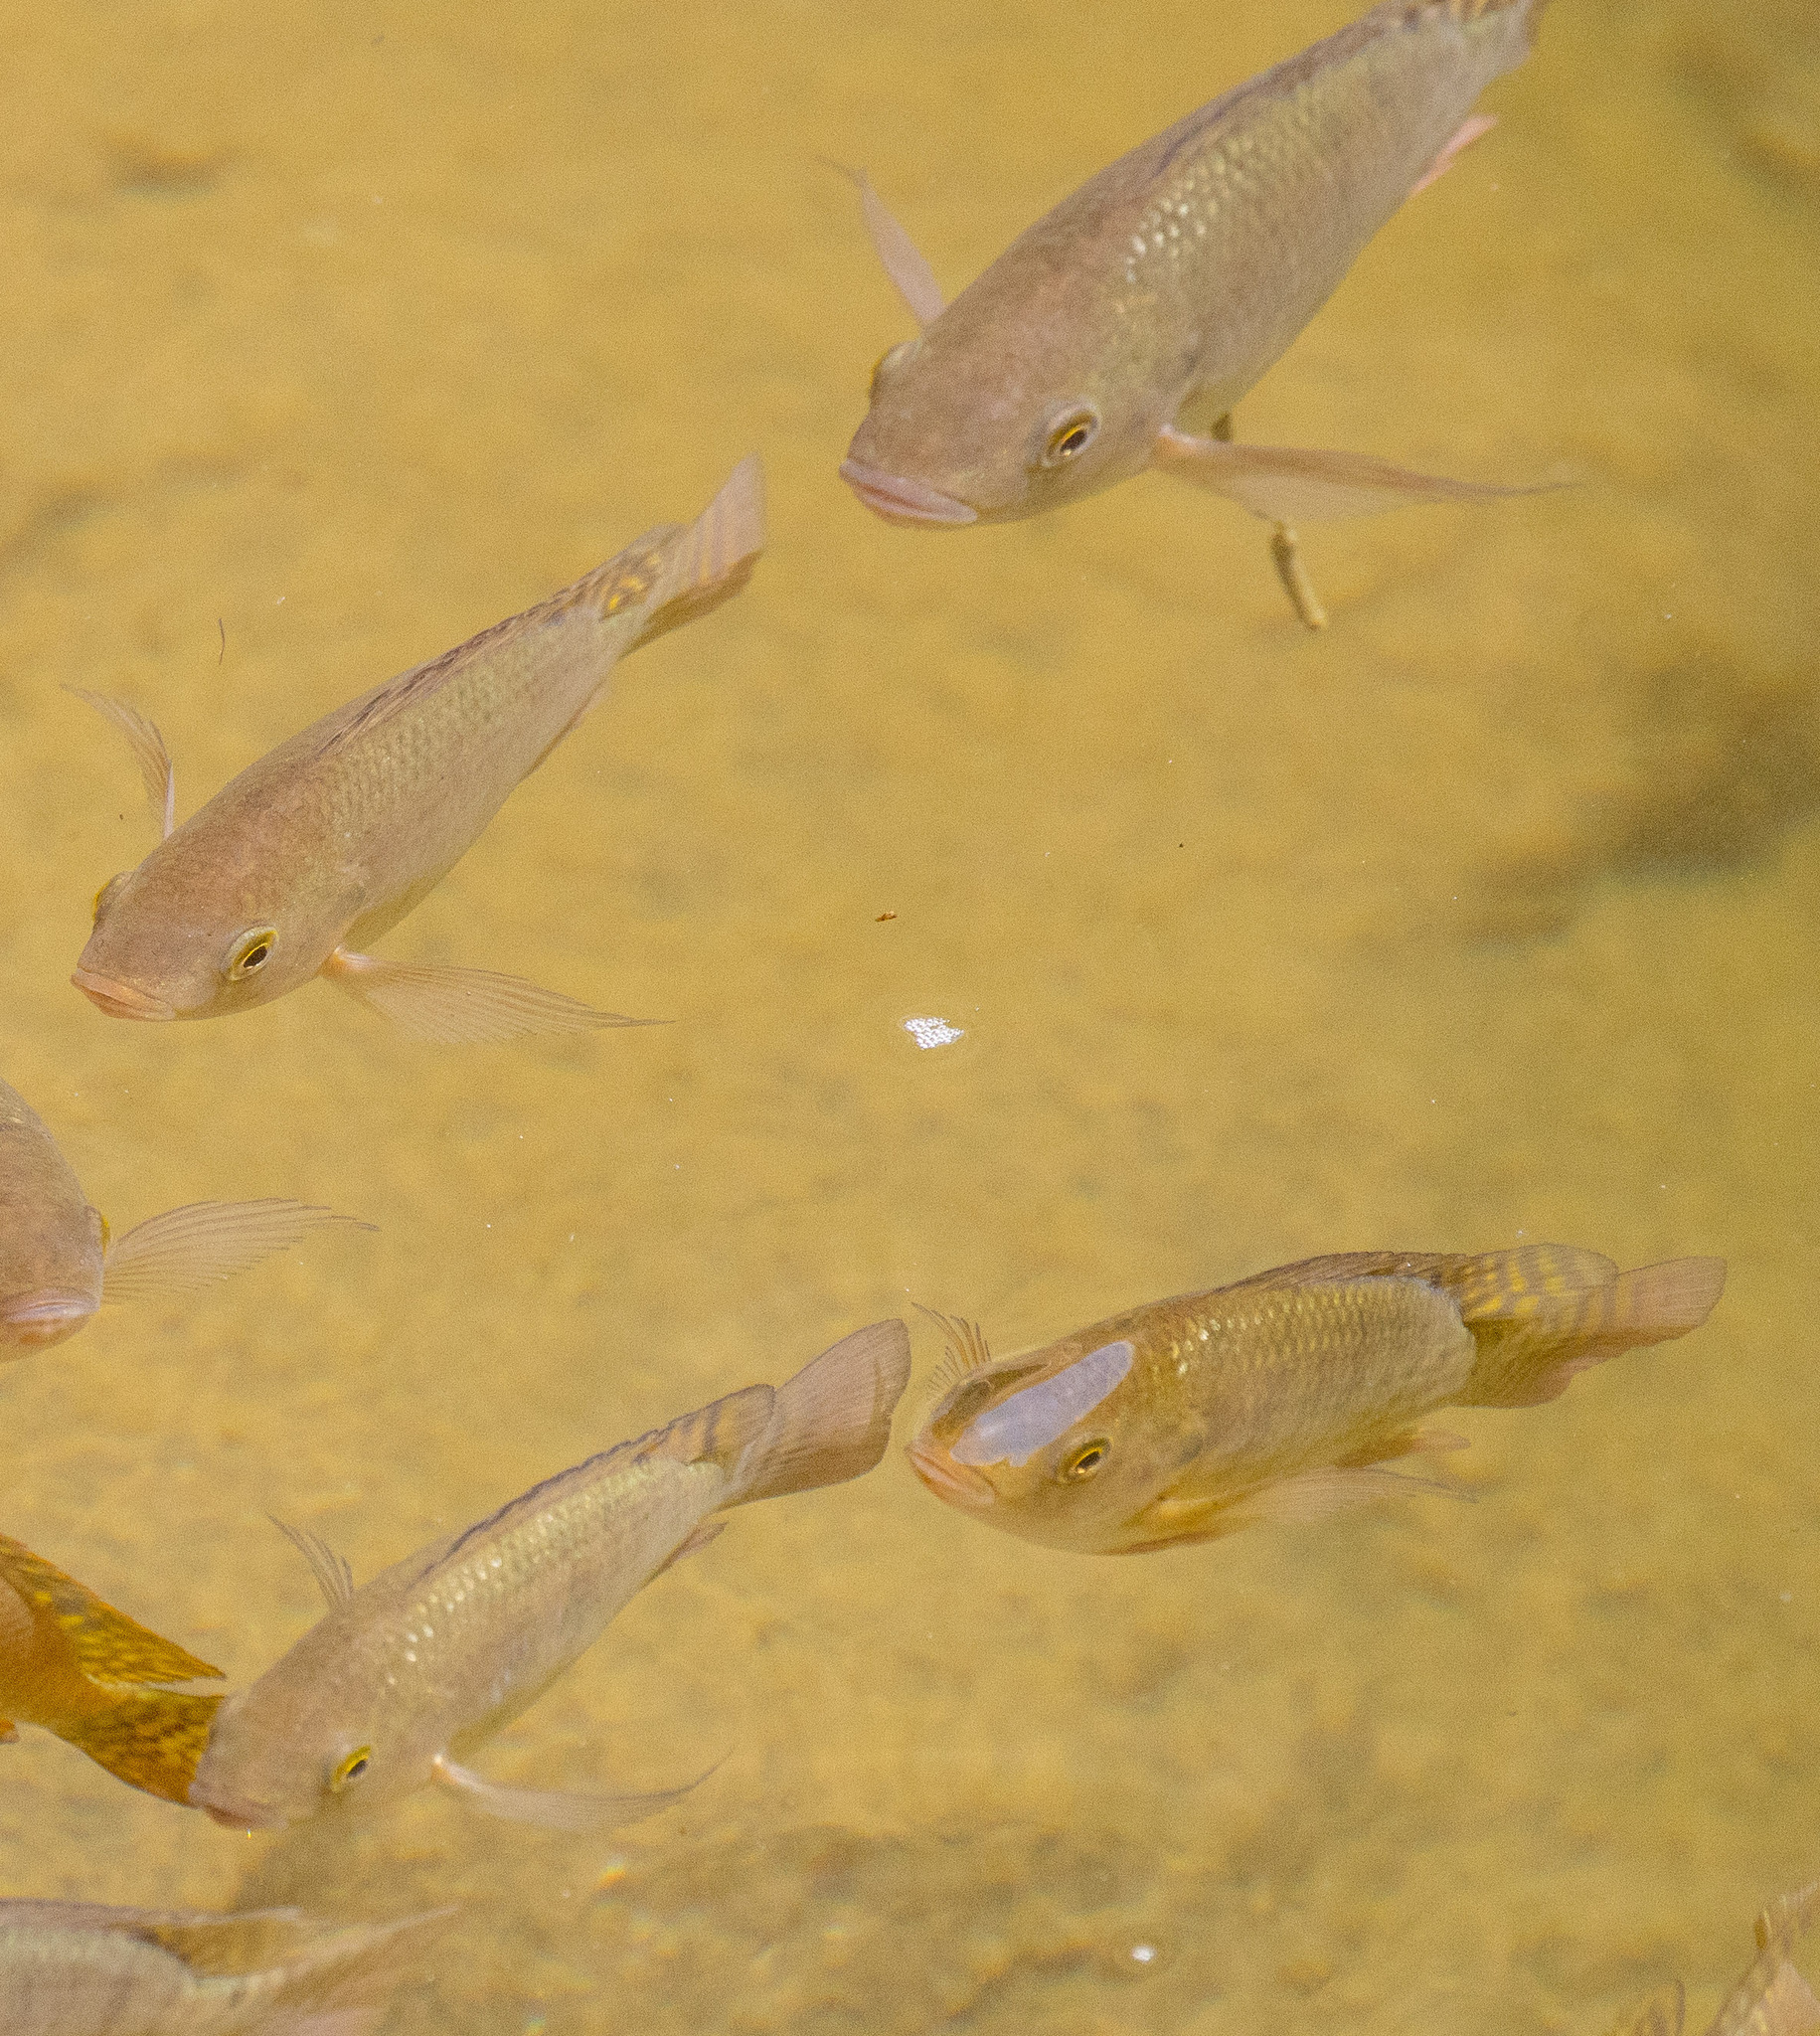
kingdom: Animalia
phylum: Chordata
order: Perciformes
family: Cichlidae
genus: Oreochromis
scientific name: Oreochromis niloticus
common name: Nile tilapia
